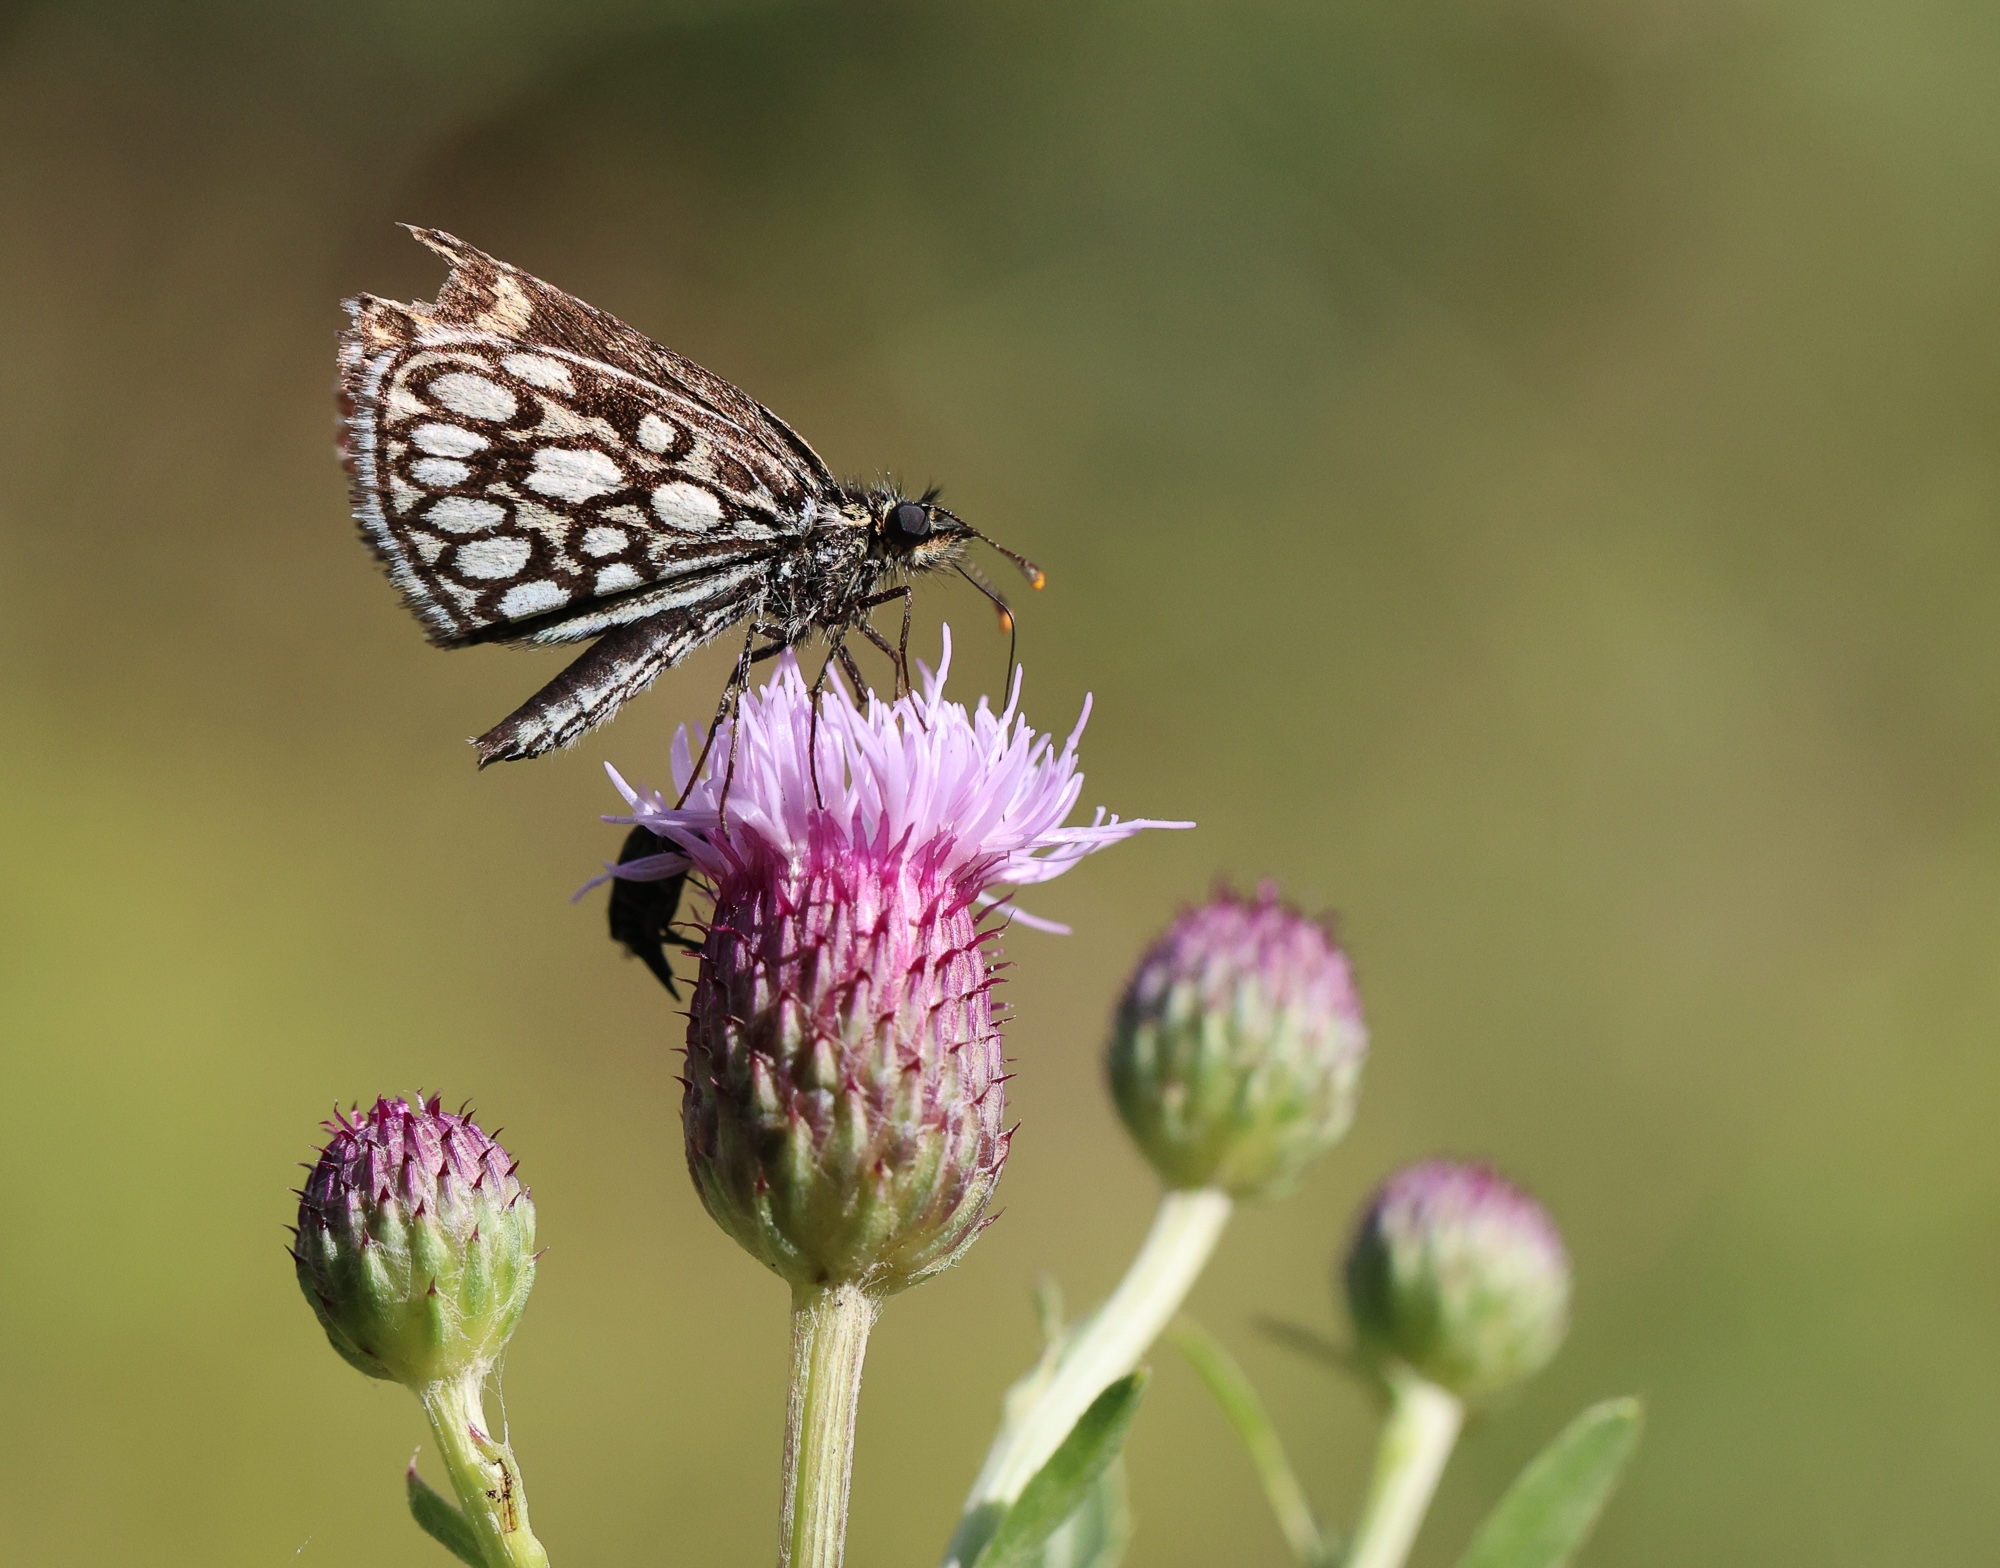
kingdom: Animalia
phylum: Arthropoda
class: Insecta
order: Lepidoptera
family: Hesperiidae
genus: Heteropterus
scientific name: Heteropterus morpheus
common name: Large chequered skipper
